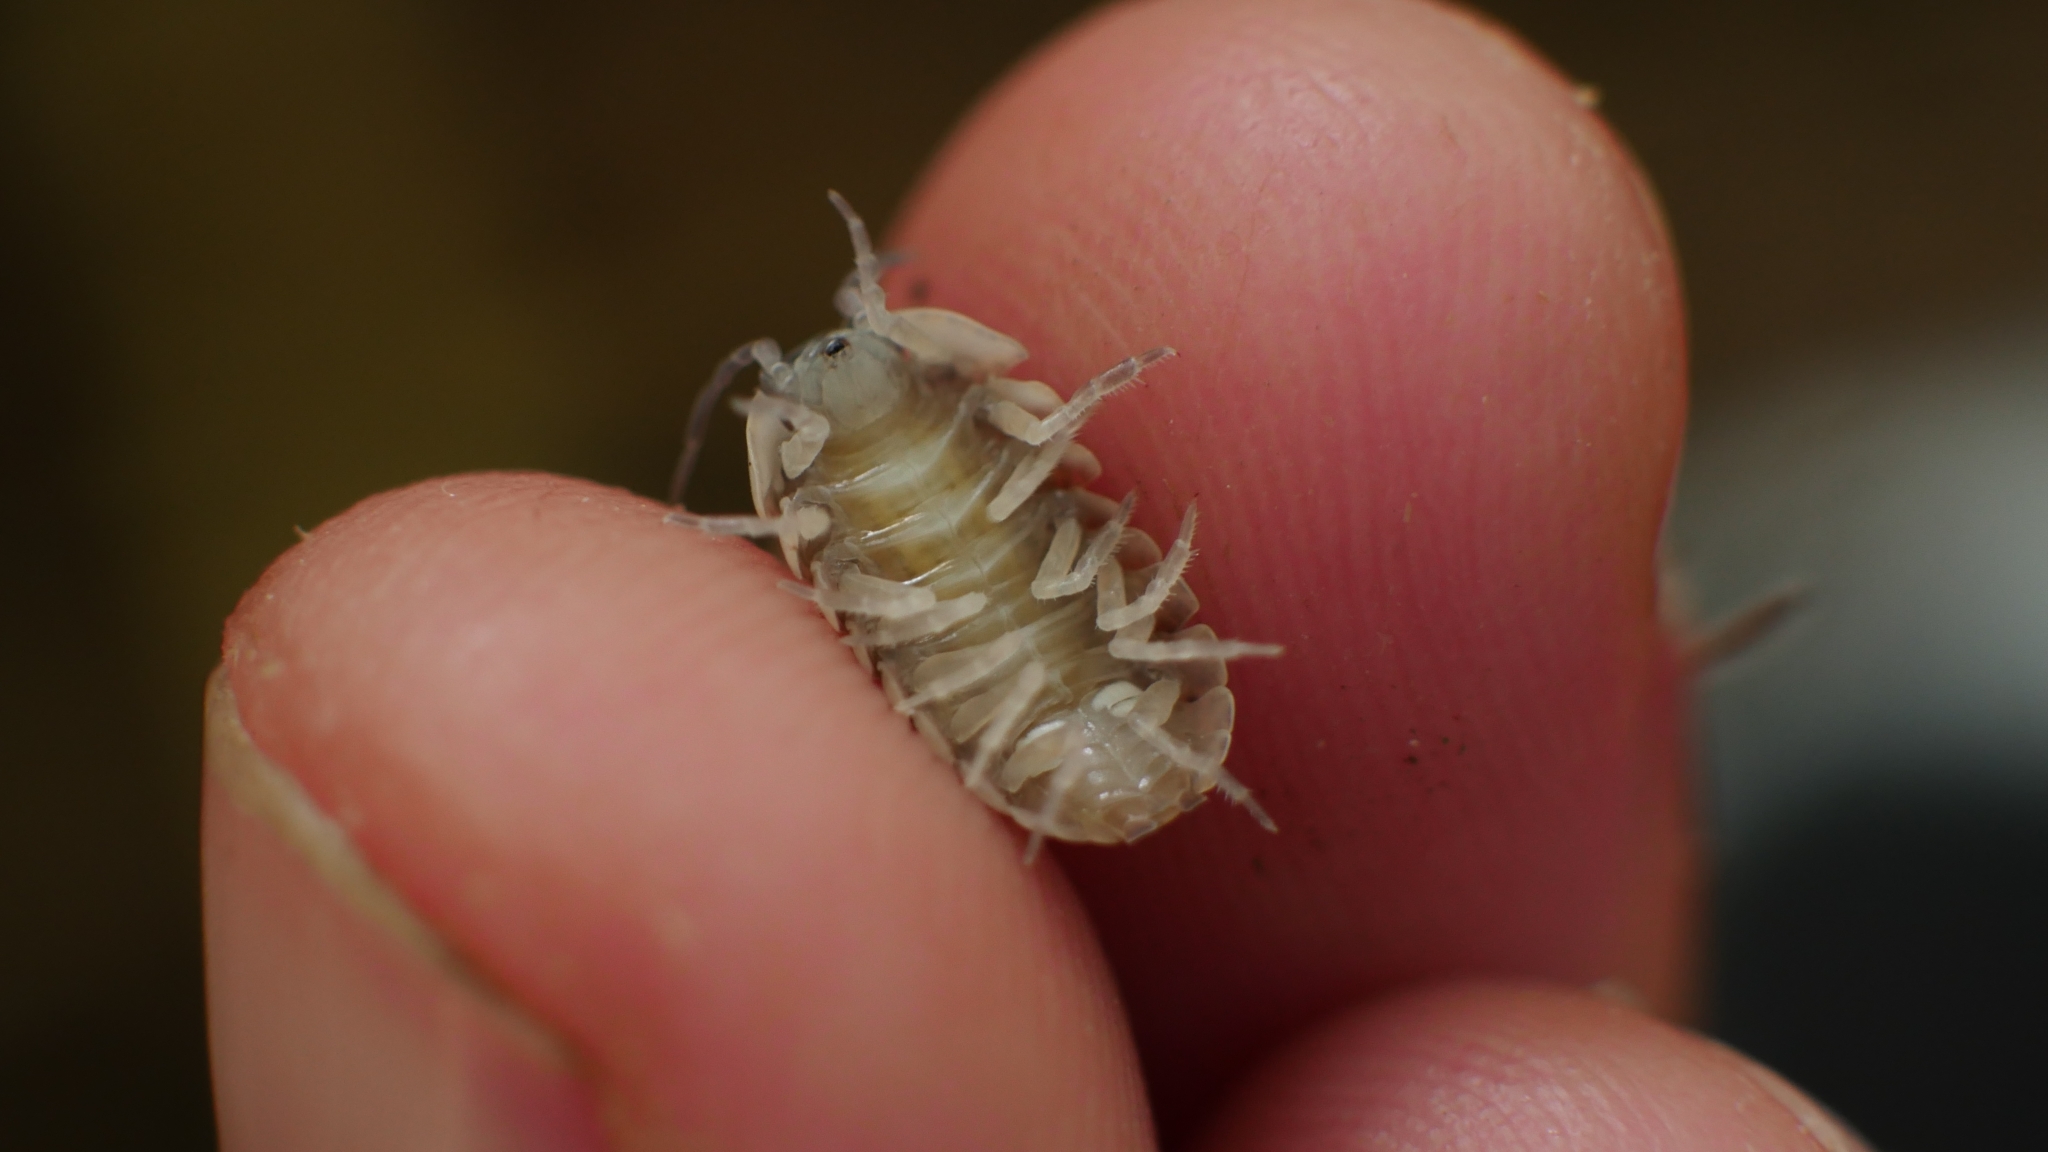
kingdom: Animalia
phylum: Arthropoda
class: Malacostraca
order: Isopoda
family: Armadillidiidae
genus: Armadillidium
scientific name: Armadillidium nasatum
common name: Isopod
